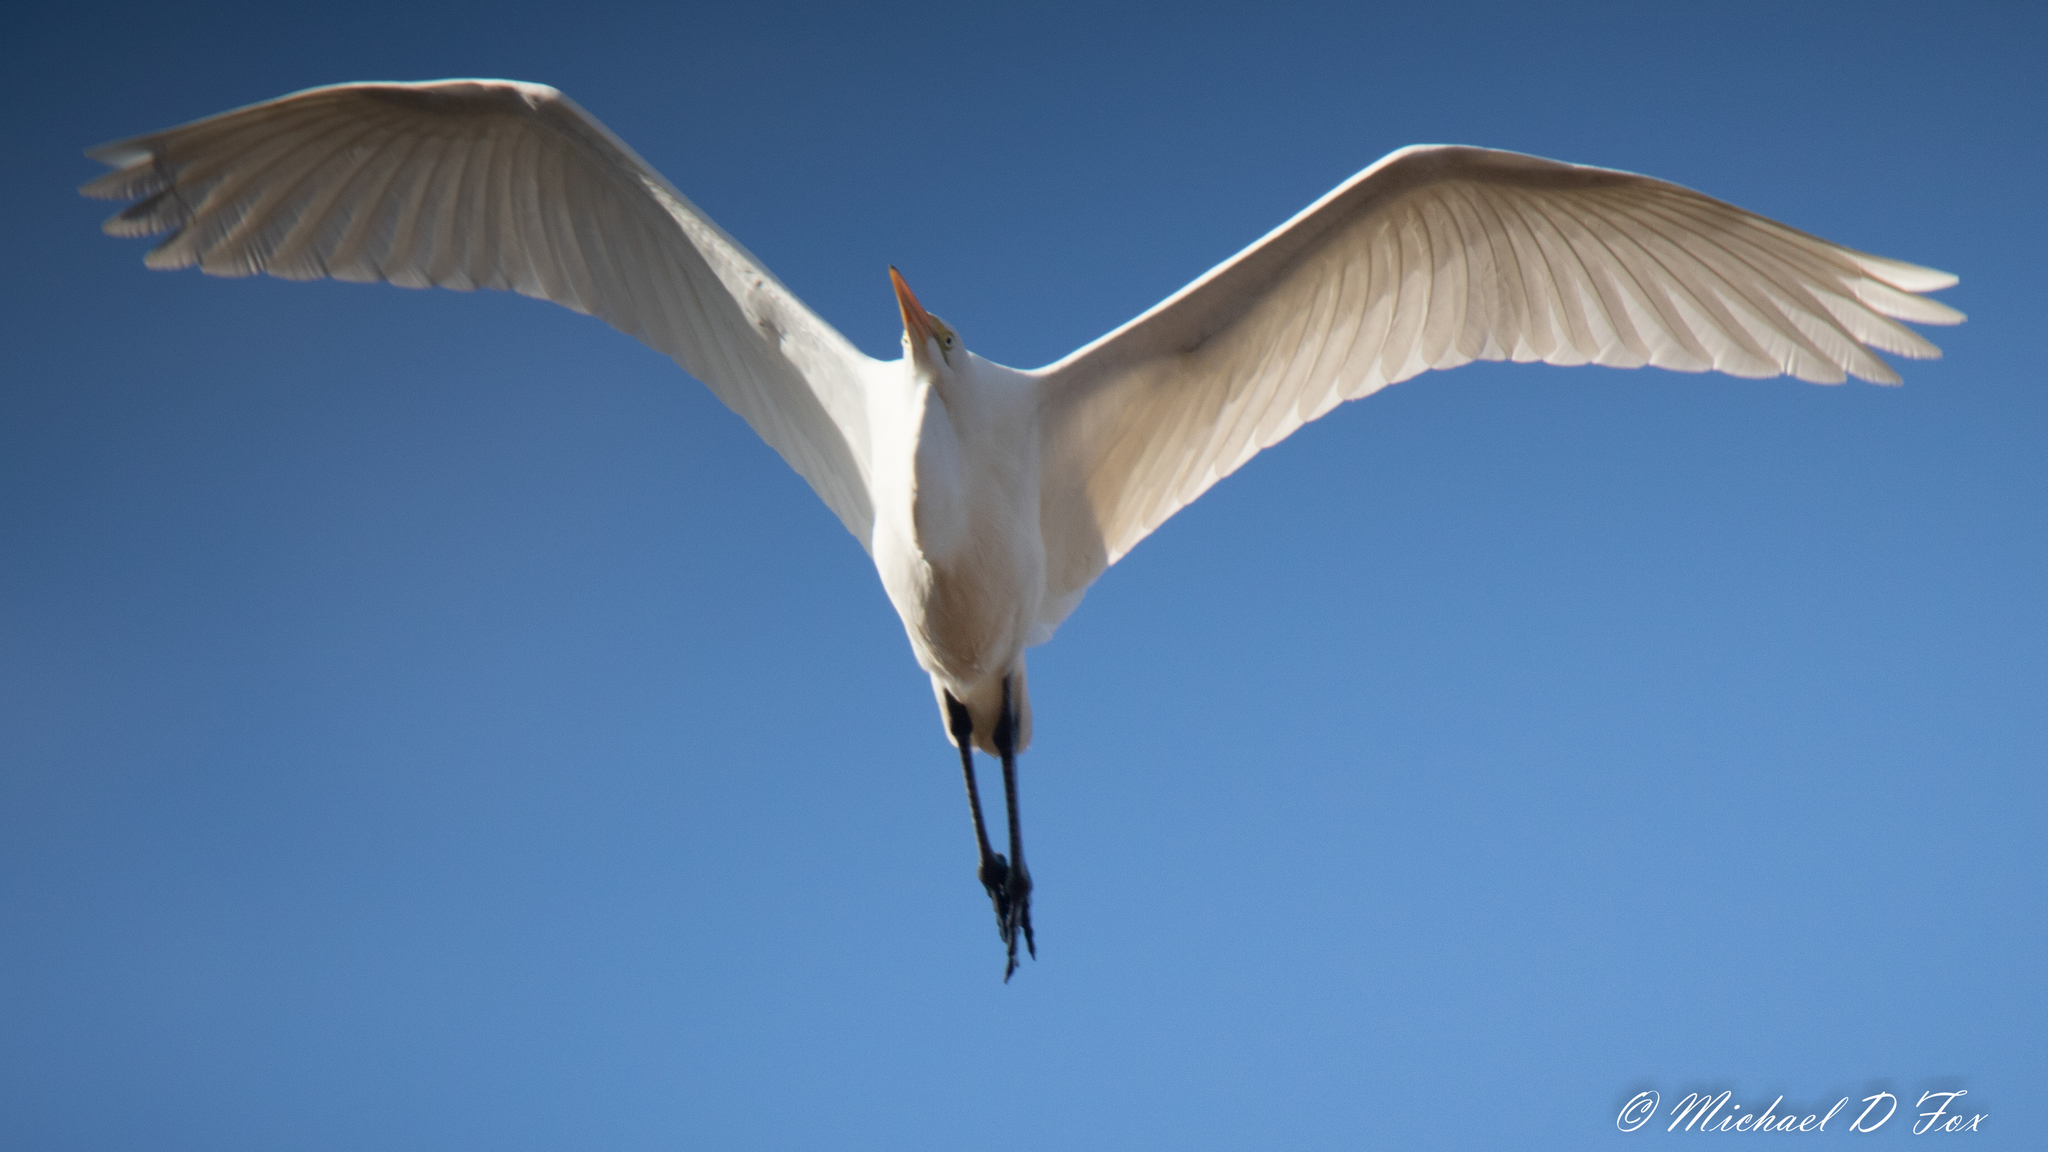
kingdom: Animalia
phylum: Chordata
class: Aves
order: Pelecaniformes
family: Ardeidae
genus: Ardea
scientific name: Ardea alba
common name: Great egret
